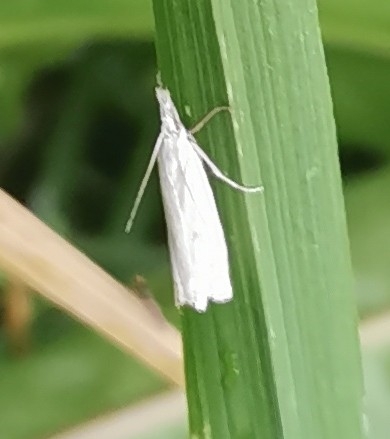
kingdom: Animalia
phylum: Arthropoda
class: Insecta
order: Lepidoptera
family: Crambidae
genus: Crambus
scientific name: Crambus nemorella
